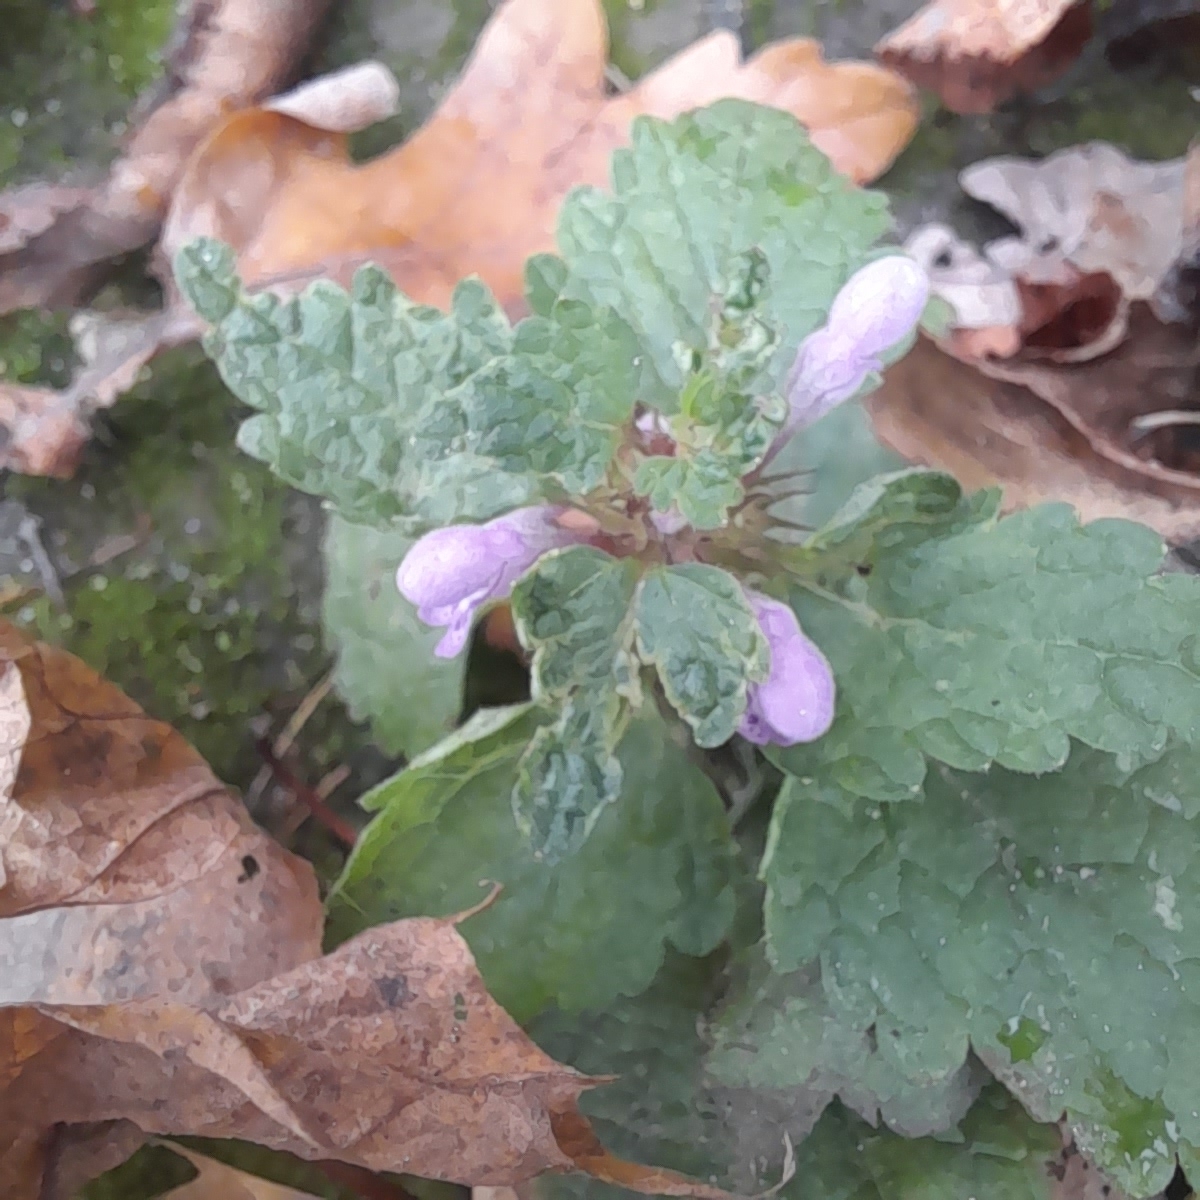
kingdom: Plantae
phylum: Tracheophyta
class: Magnoliopsida
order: Lamiales
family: Lamiaceae
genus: Lamium
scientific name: Lamium purpureum
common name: Red dead-nettle
